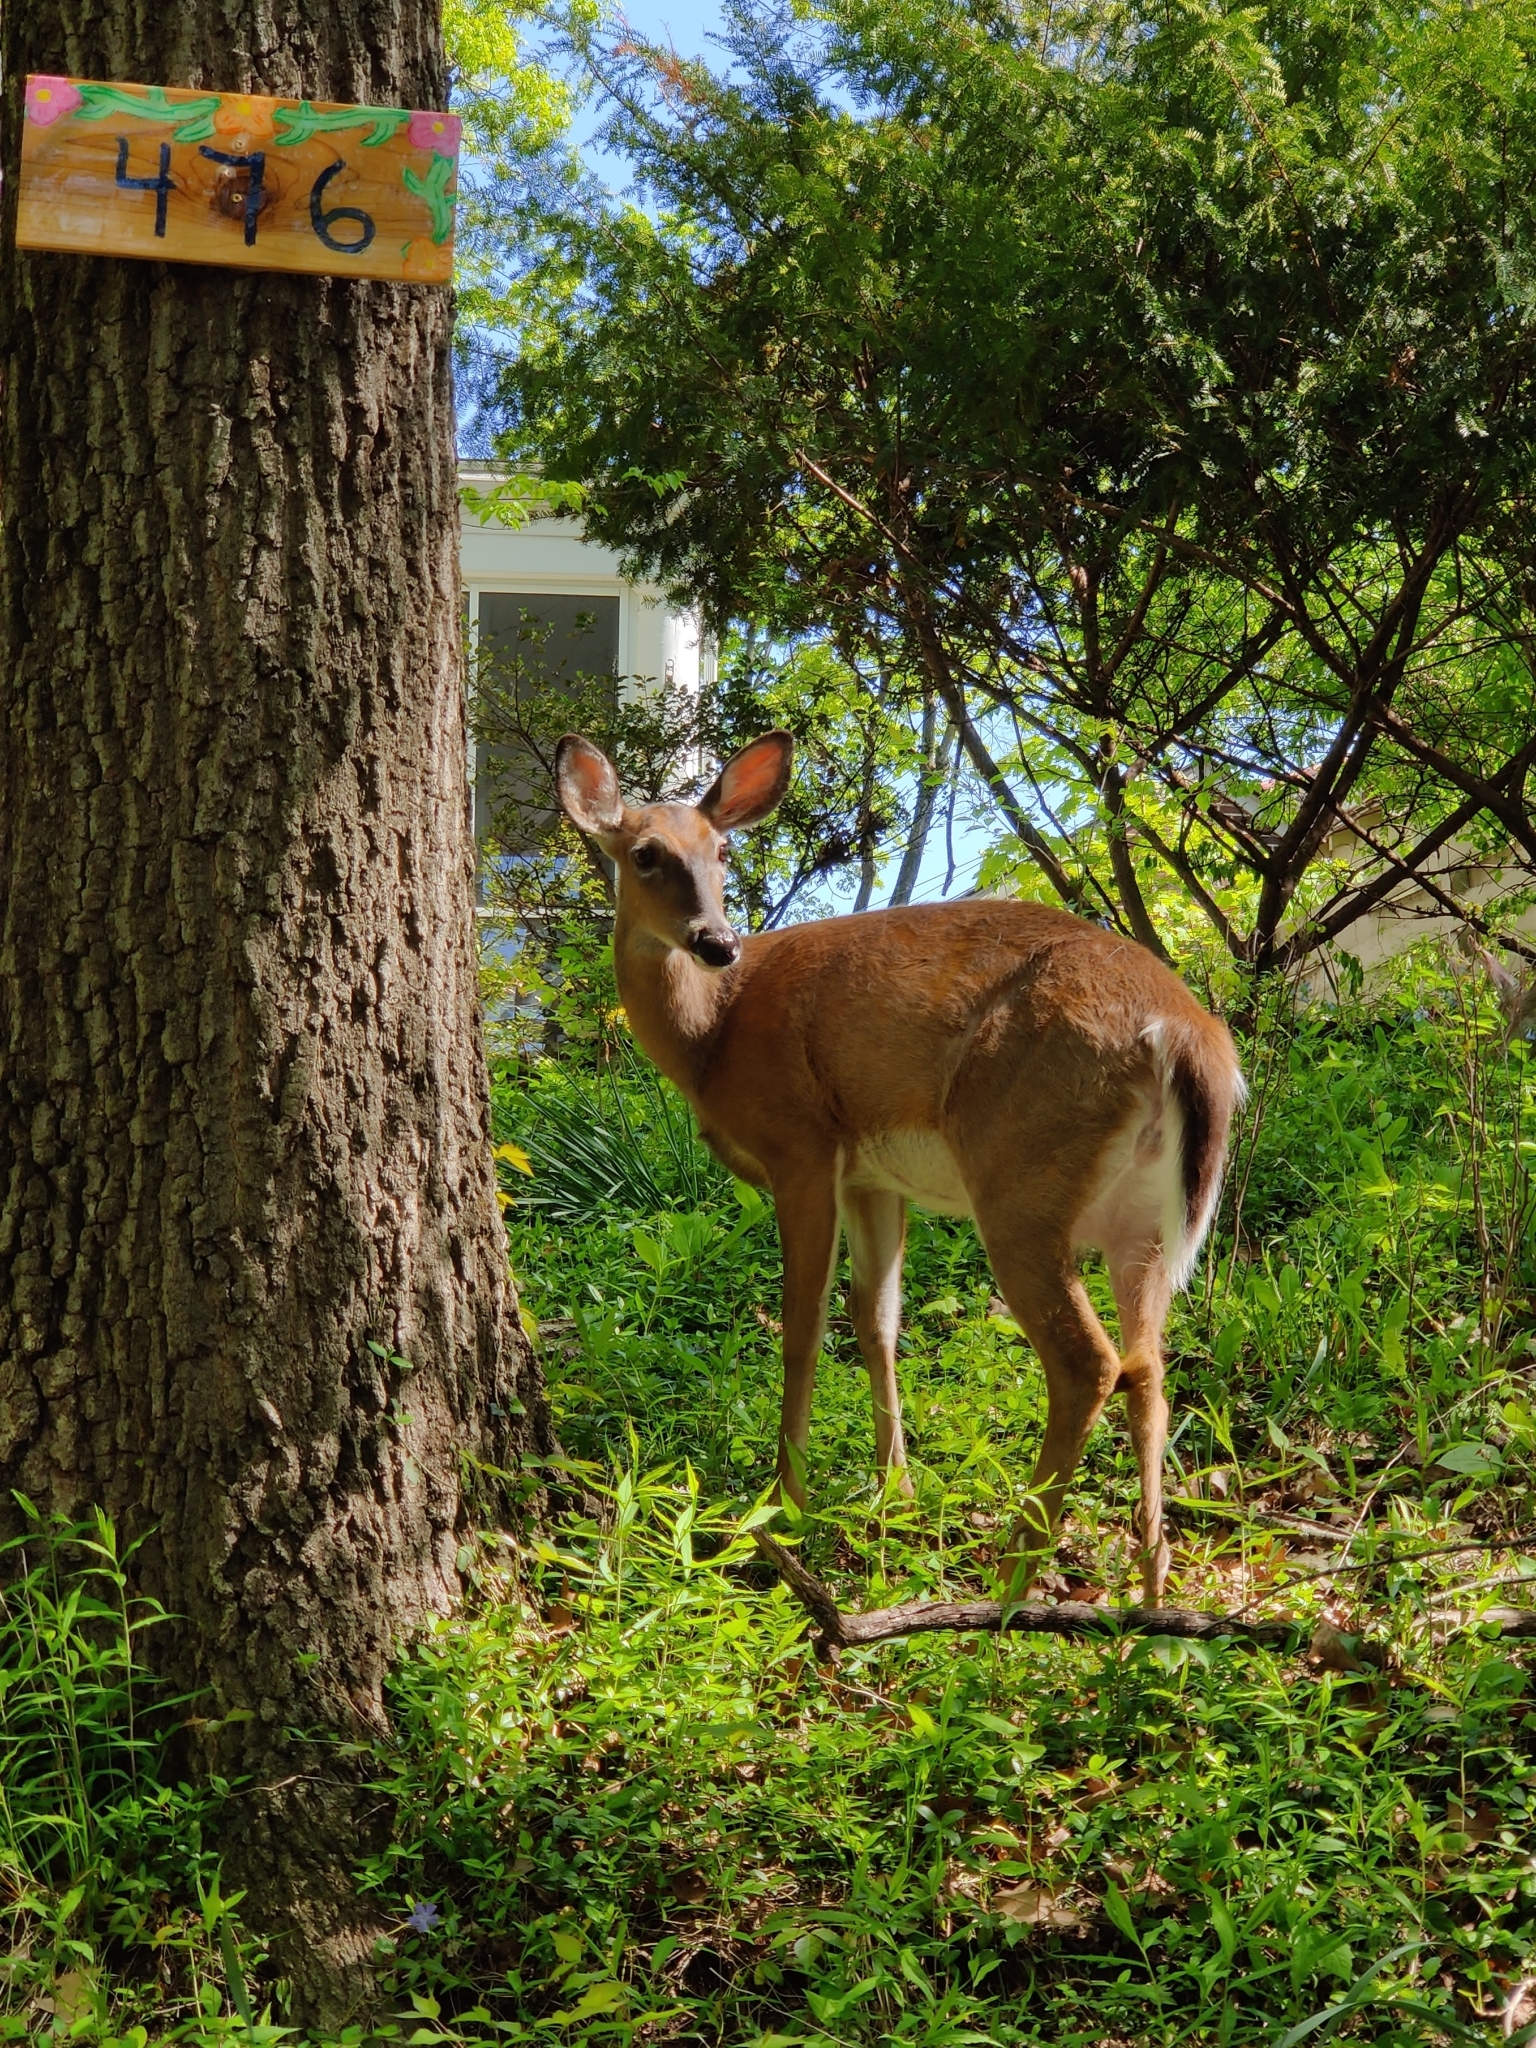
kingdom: Animalia
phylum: Chordata
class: Mammalia
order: Artiodactyla
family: Cervidae
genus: Odocoileus
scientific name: Odocoileus virginianus
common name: White-tailed deer
